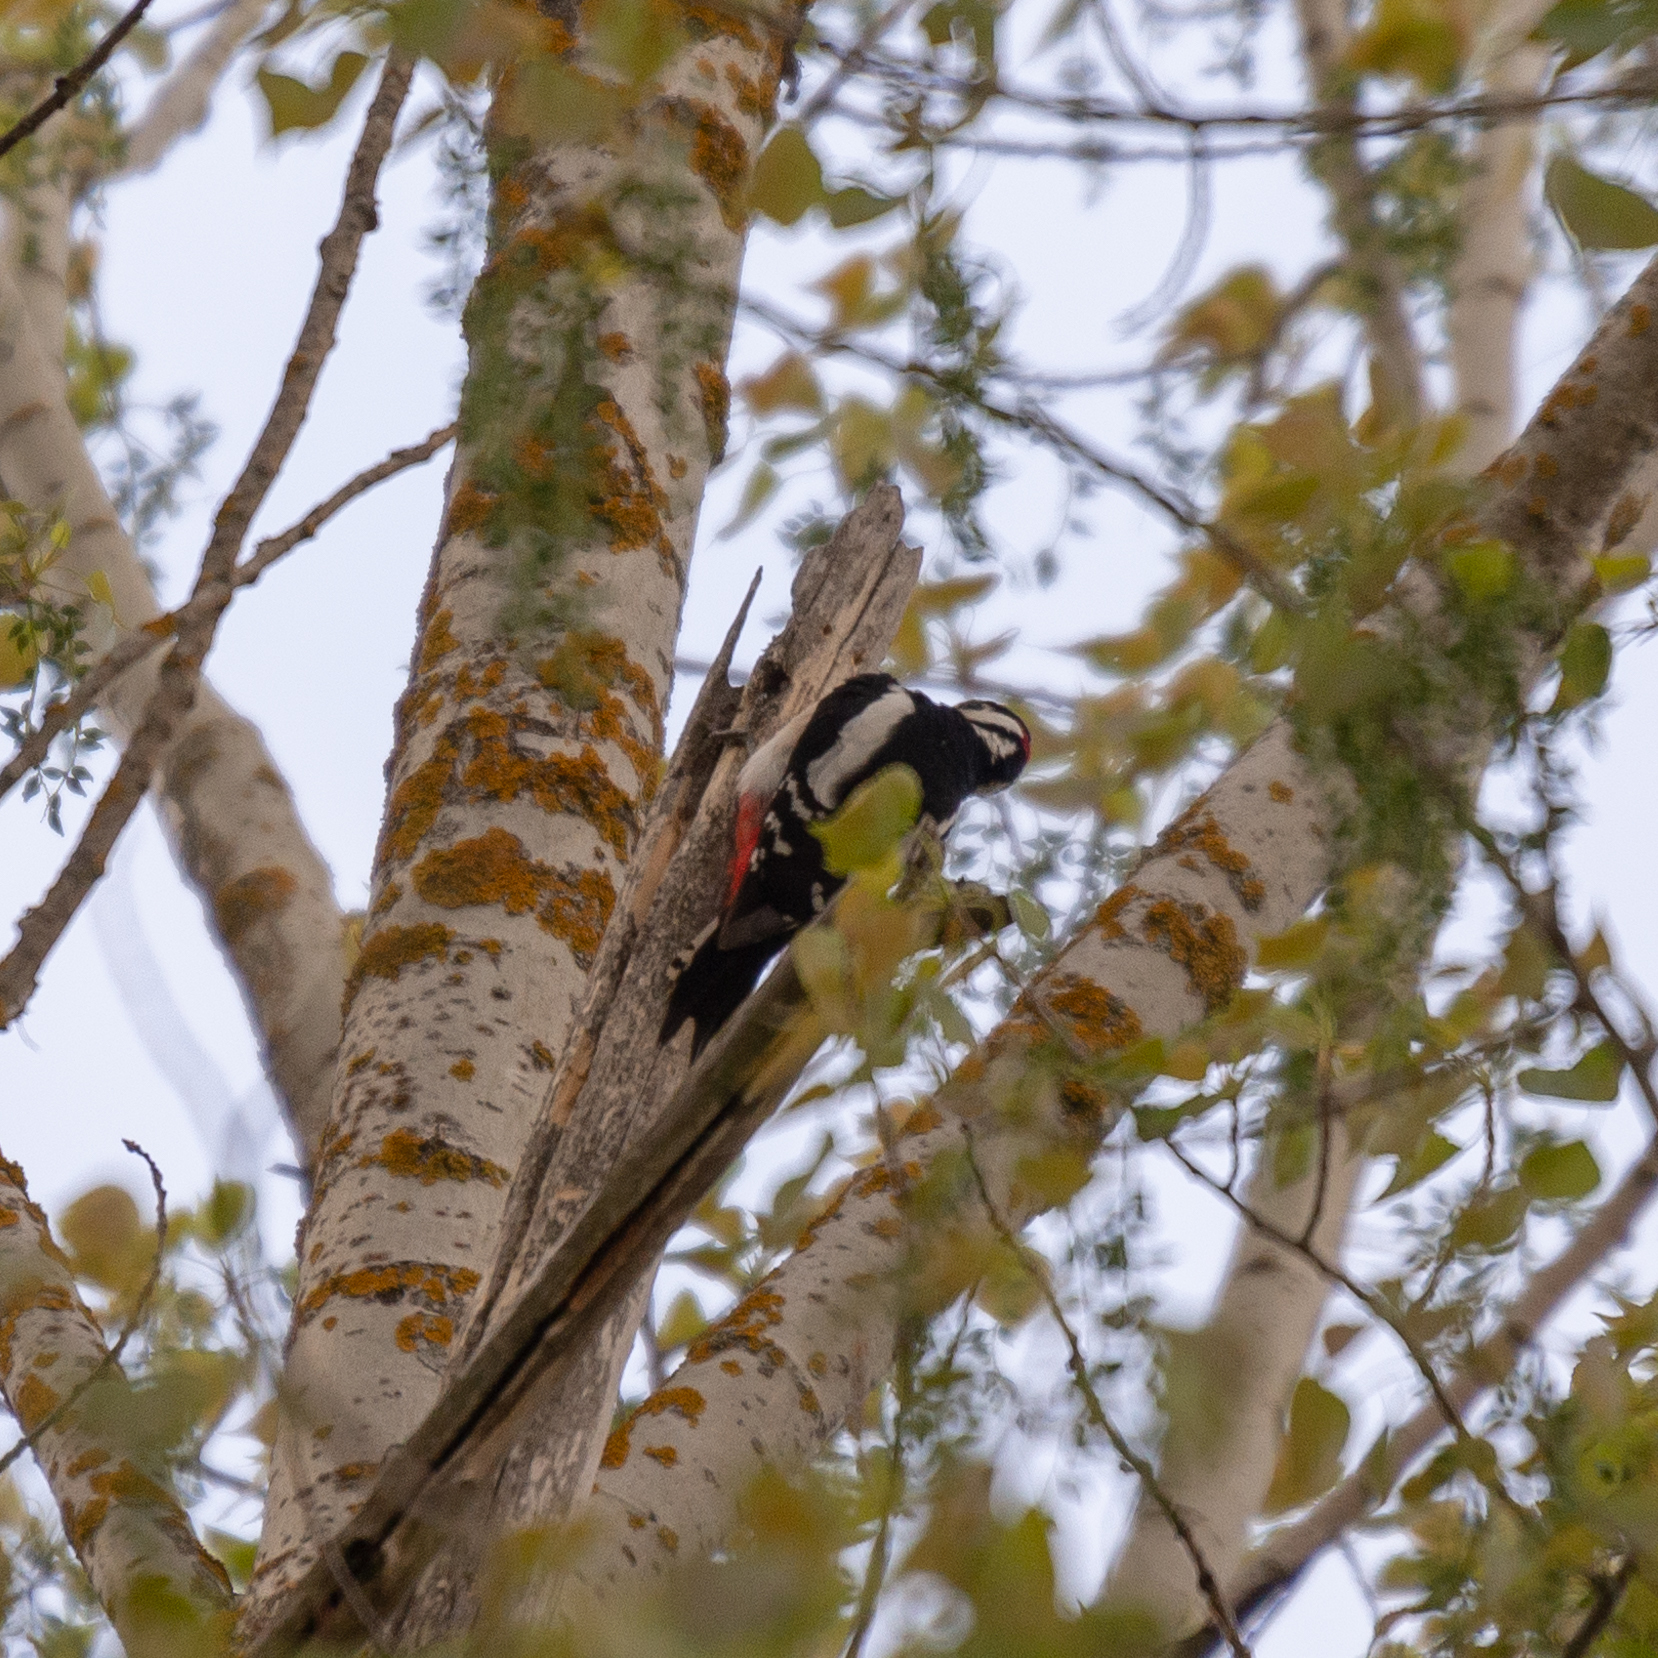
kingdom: Animalia
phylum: Chordata
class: Aves
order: Piciformes
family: Picidae
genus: Dendrocopos
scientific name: Dendrocopos major
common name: Great spotted woodpecker
